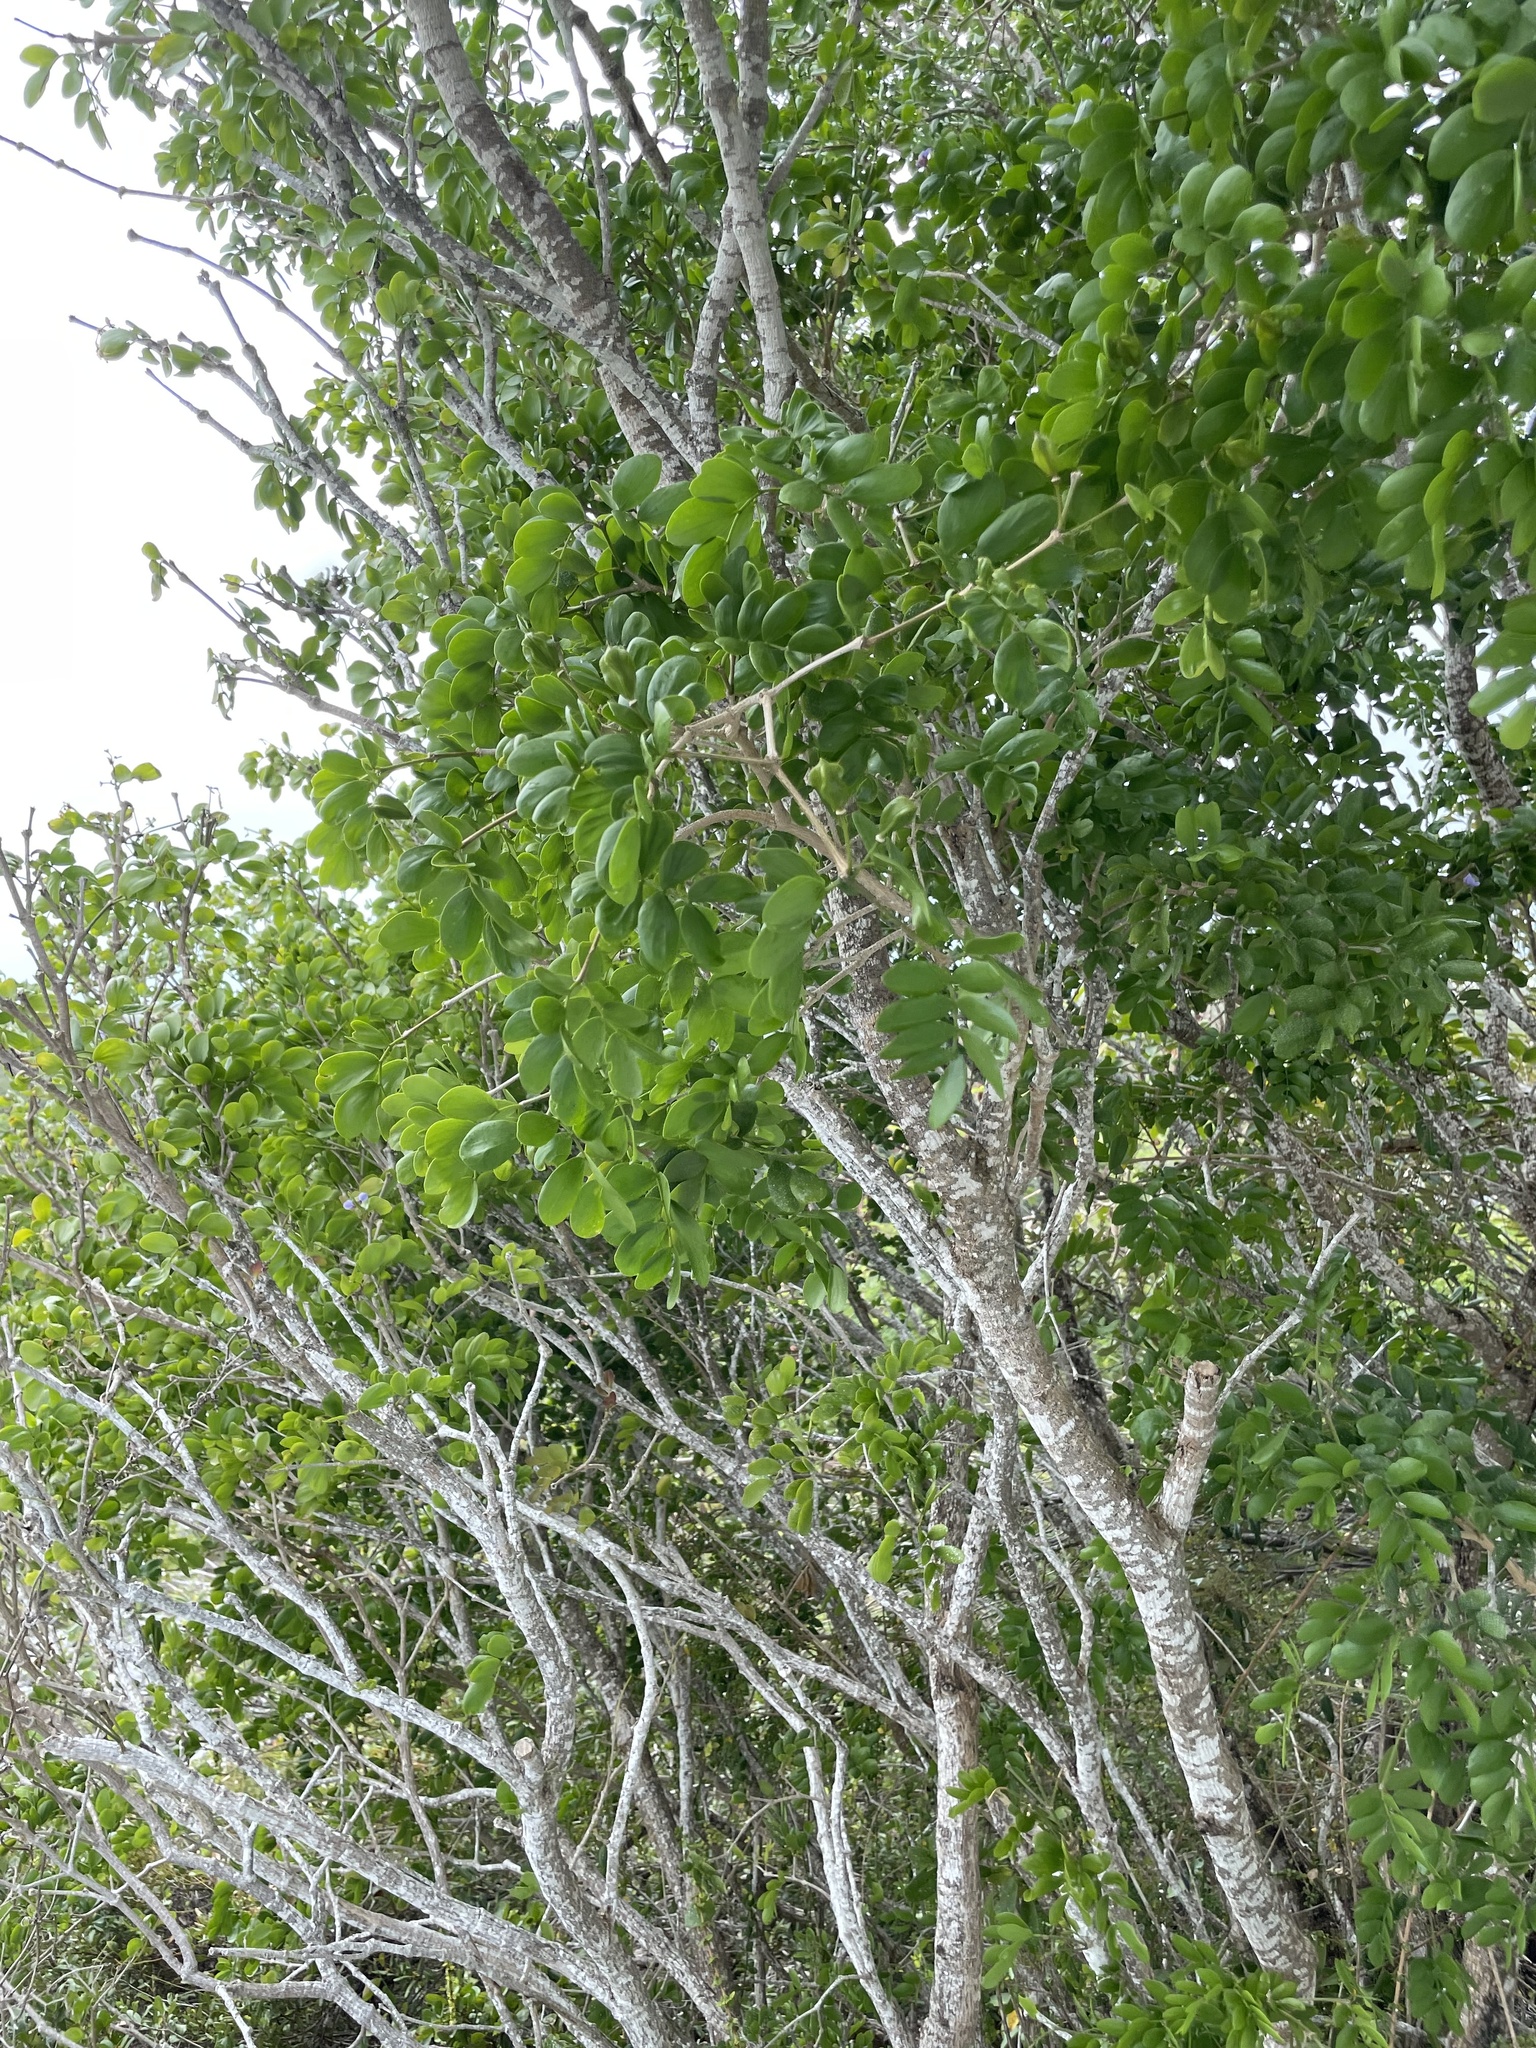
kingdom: Plantae
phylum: Tracheophyta
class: Magnoliopsida
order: Zygophyllales
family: Zygophyllaceae
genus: Guaiacum
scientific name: Guaiacum sanctum
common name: Holywood
